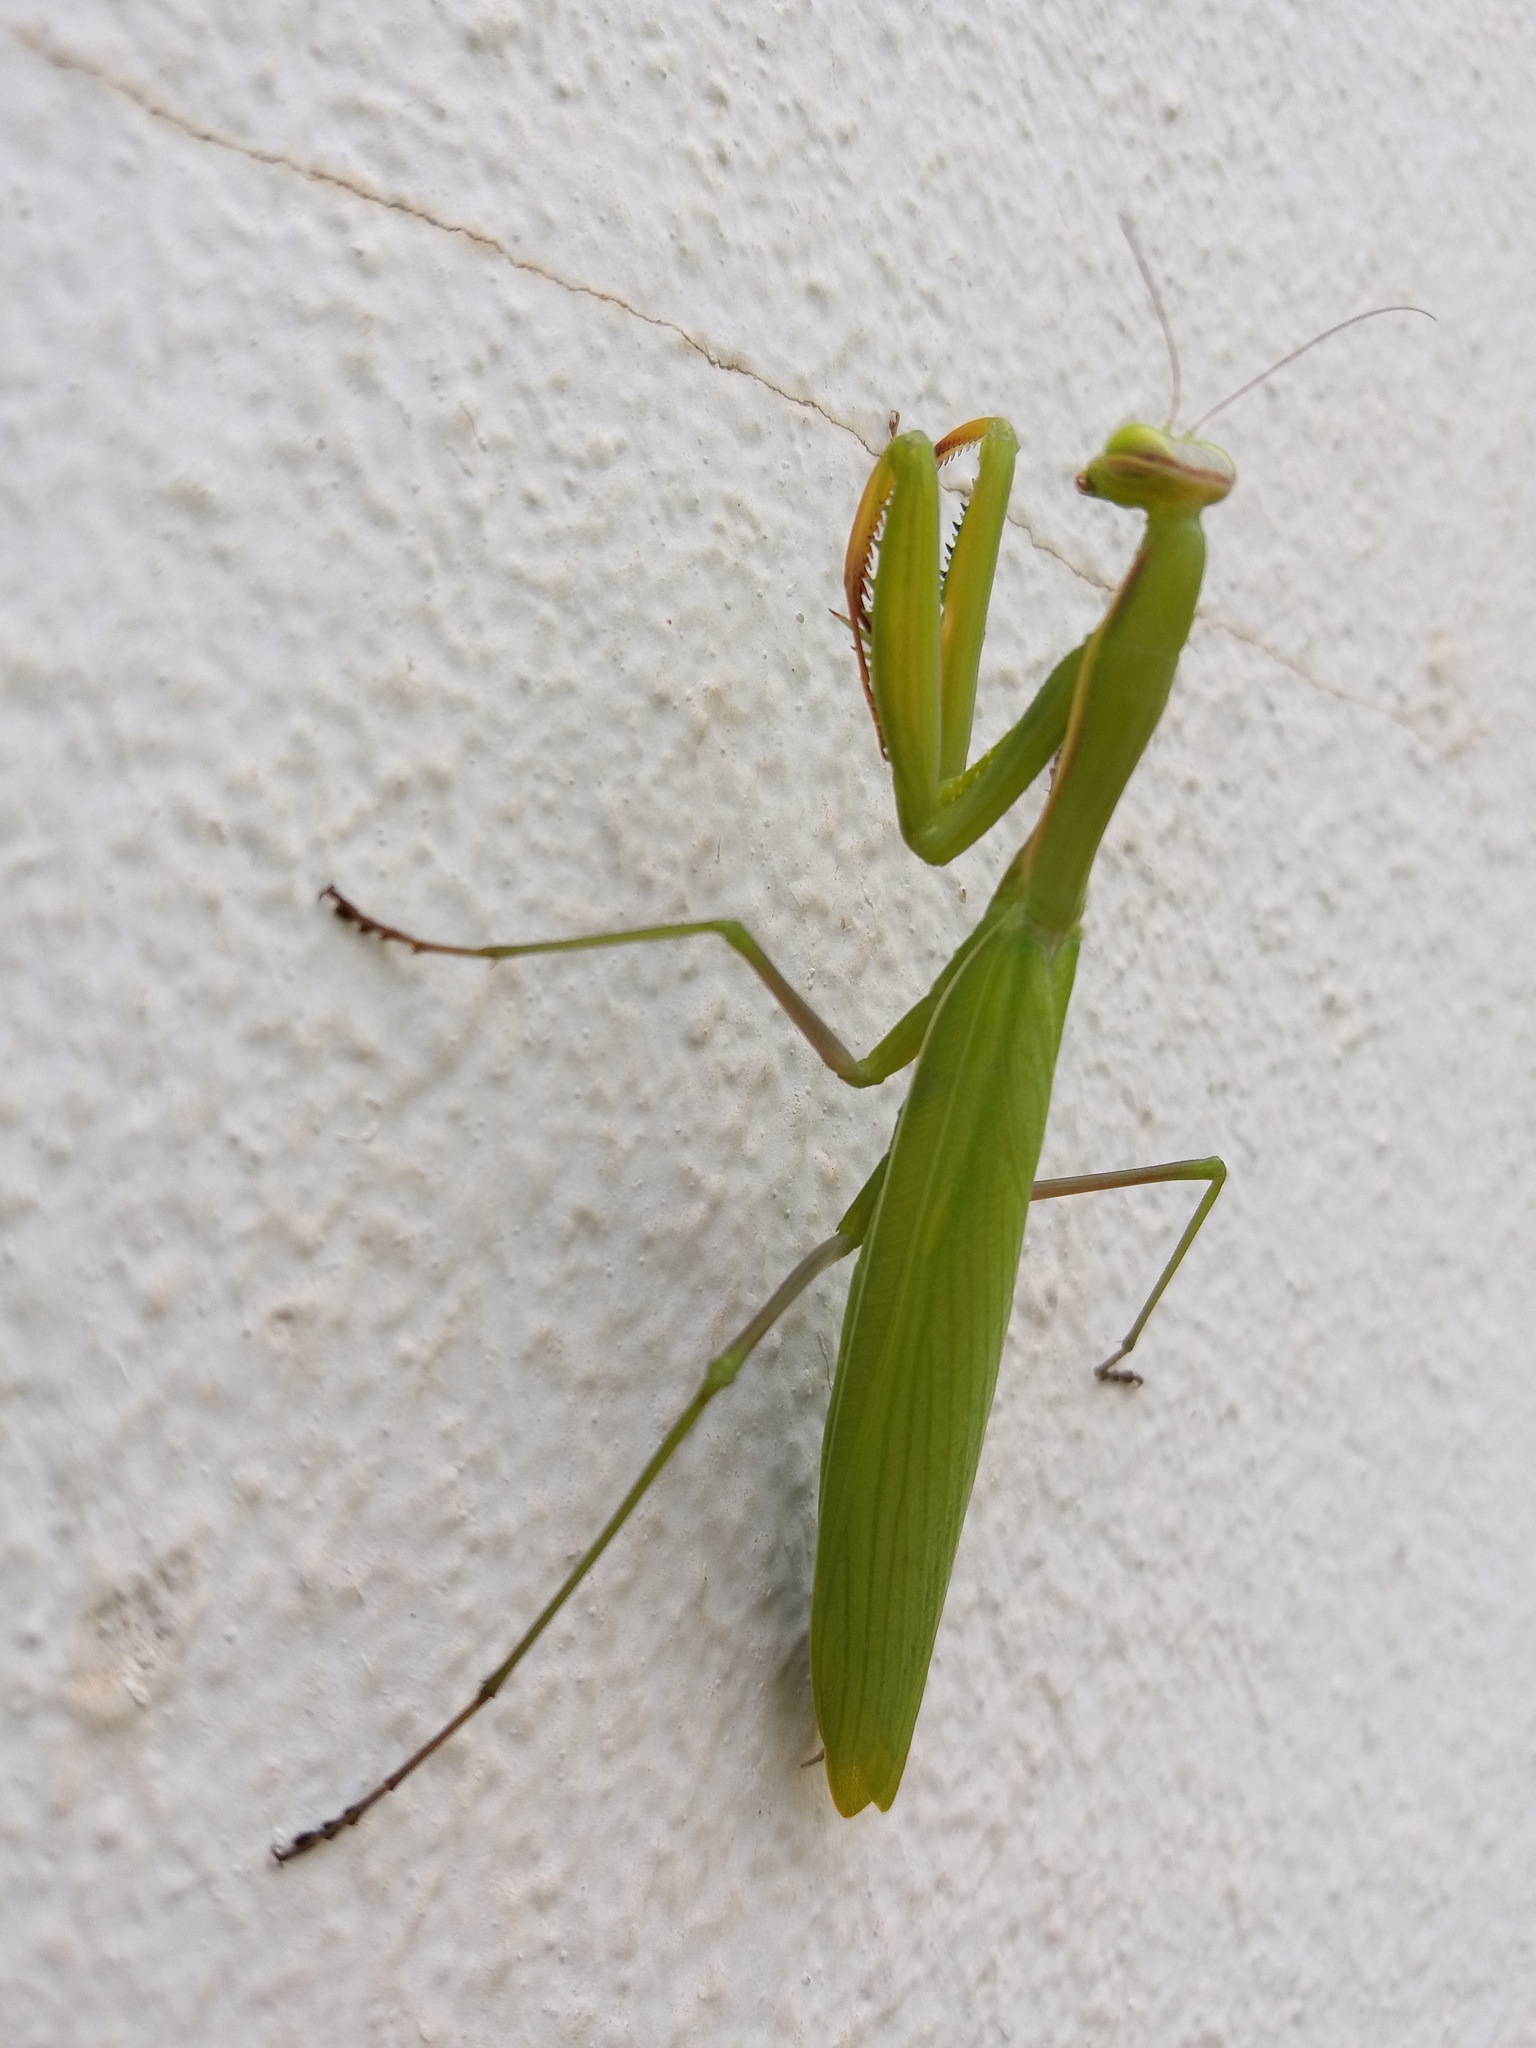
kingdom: Animalia
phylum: Arthropoda
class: Insecta
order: Mantodea
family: Mantidae
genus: Mantis
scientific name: Mantis religiosa
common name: Praying mantis
